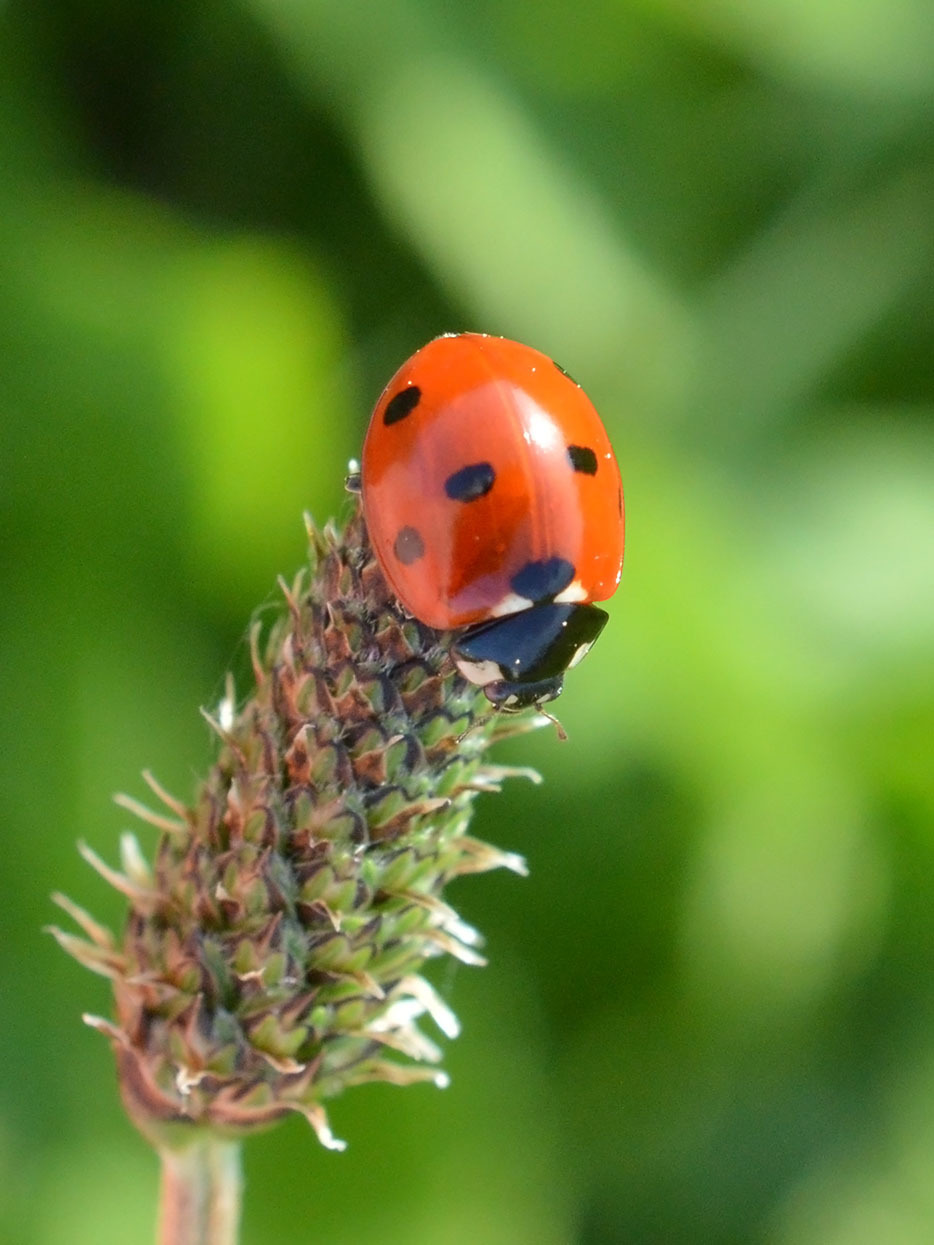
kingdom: Animalia
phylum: Arthropoda
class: Insecta
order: Coleoptera
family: Coccinellidae
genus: Coccinella
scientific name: Coccinella septempunctata
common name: Sevenspotted lady beetle
